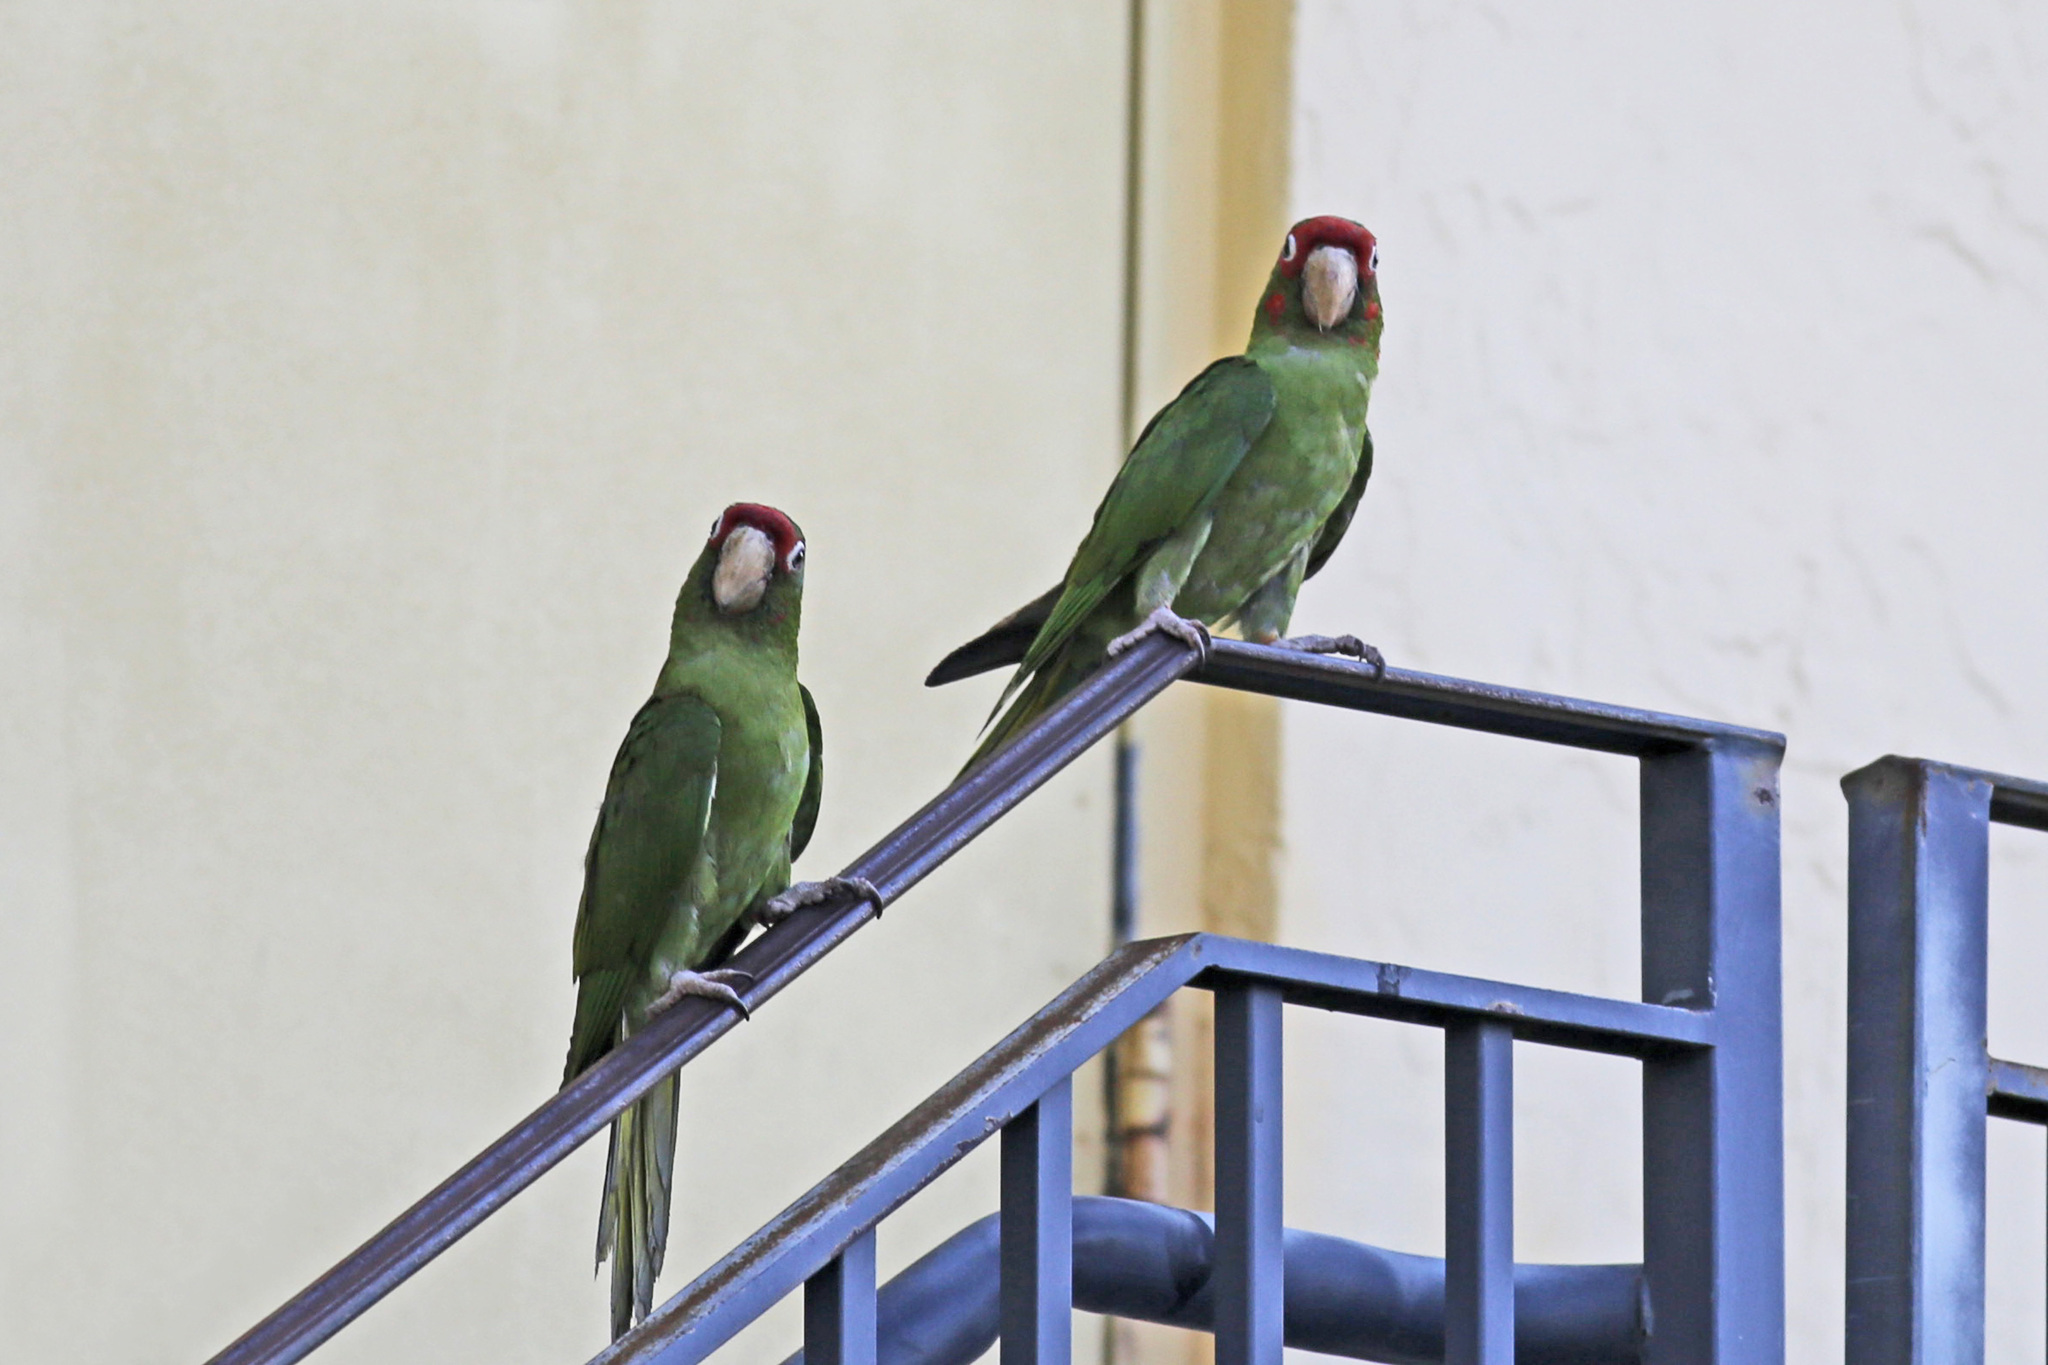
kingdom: Animalia
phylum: Chordata
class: Aves
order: Psittaciformes
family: Psittacidae
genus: Aratinga
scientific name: Aratinga mitrata
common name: Mitred parakeet
